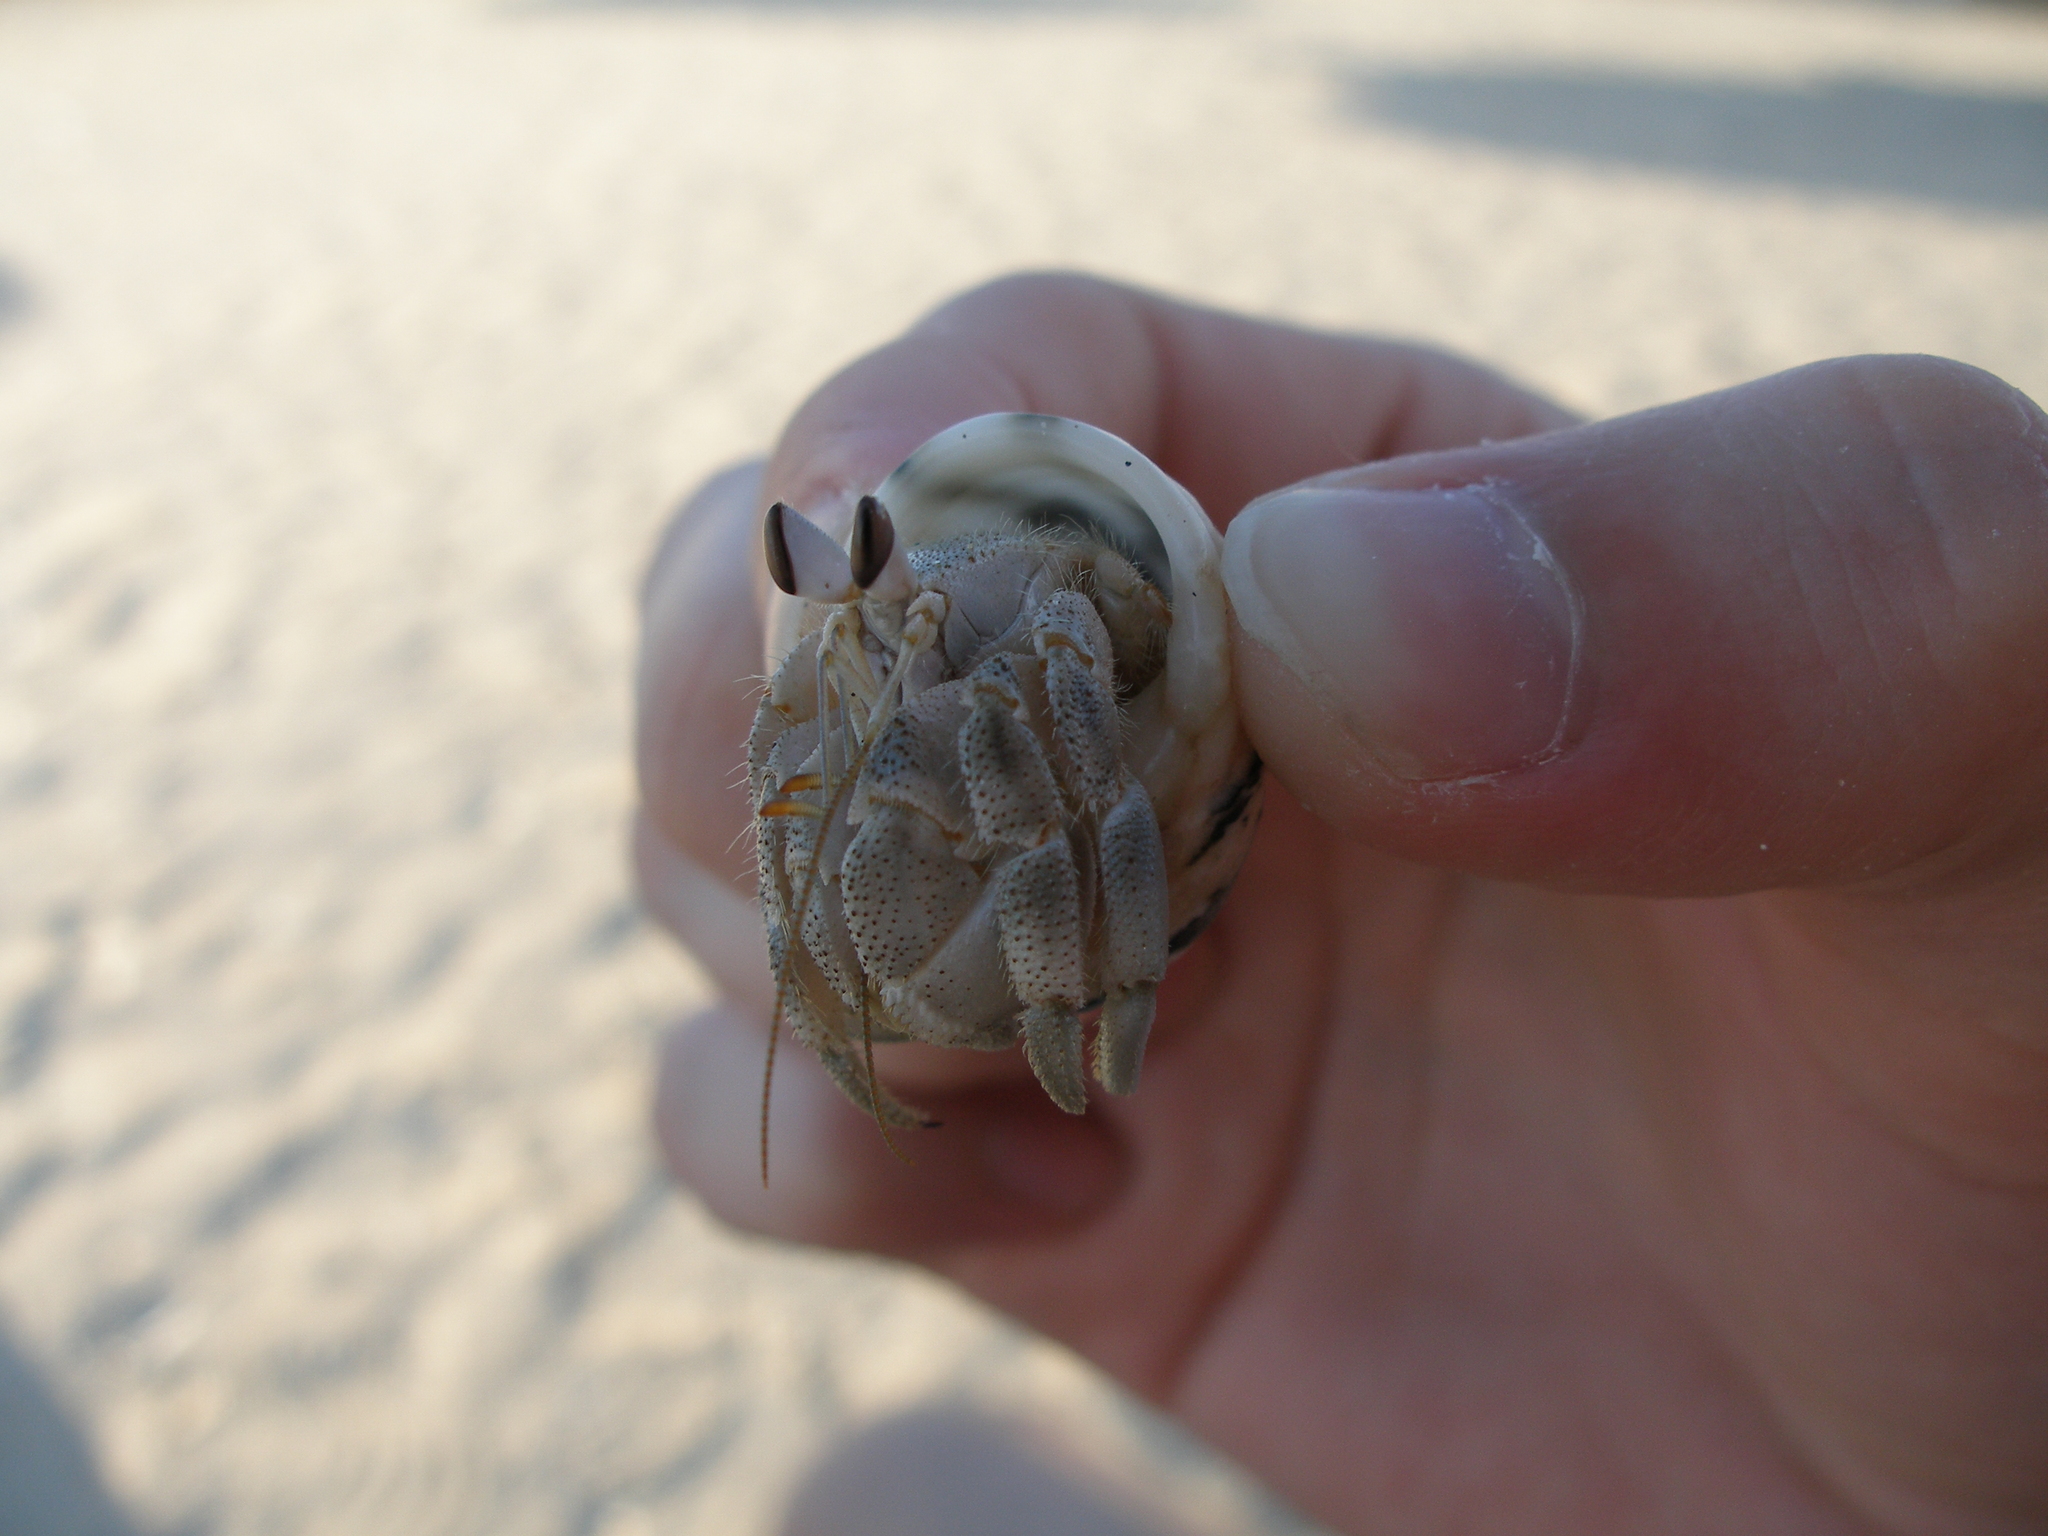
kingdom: Animalia
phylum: Arthropoda
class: Malacostraca
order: Decapoda
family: Coenobitidae
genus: Coenobita
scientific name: Coenobita scaevola
